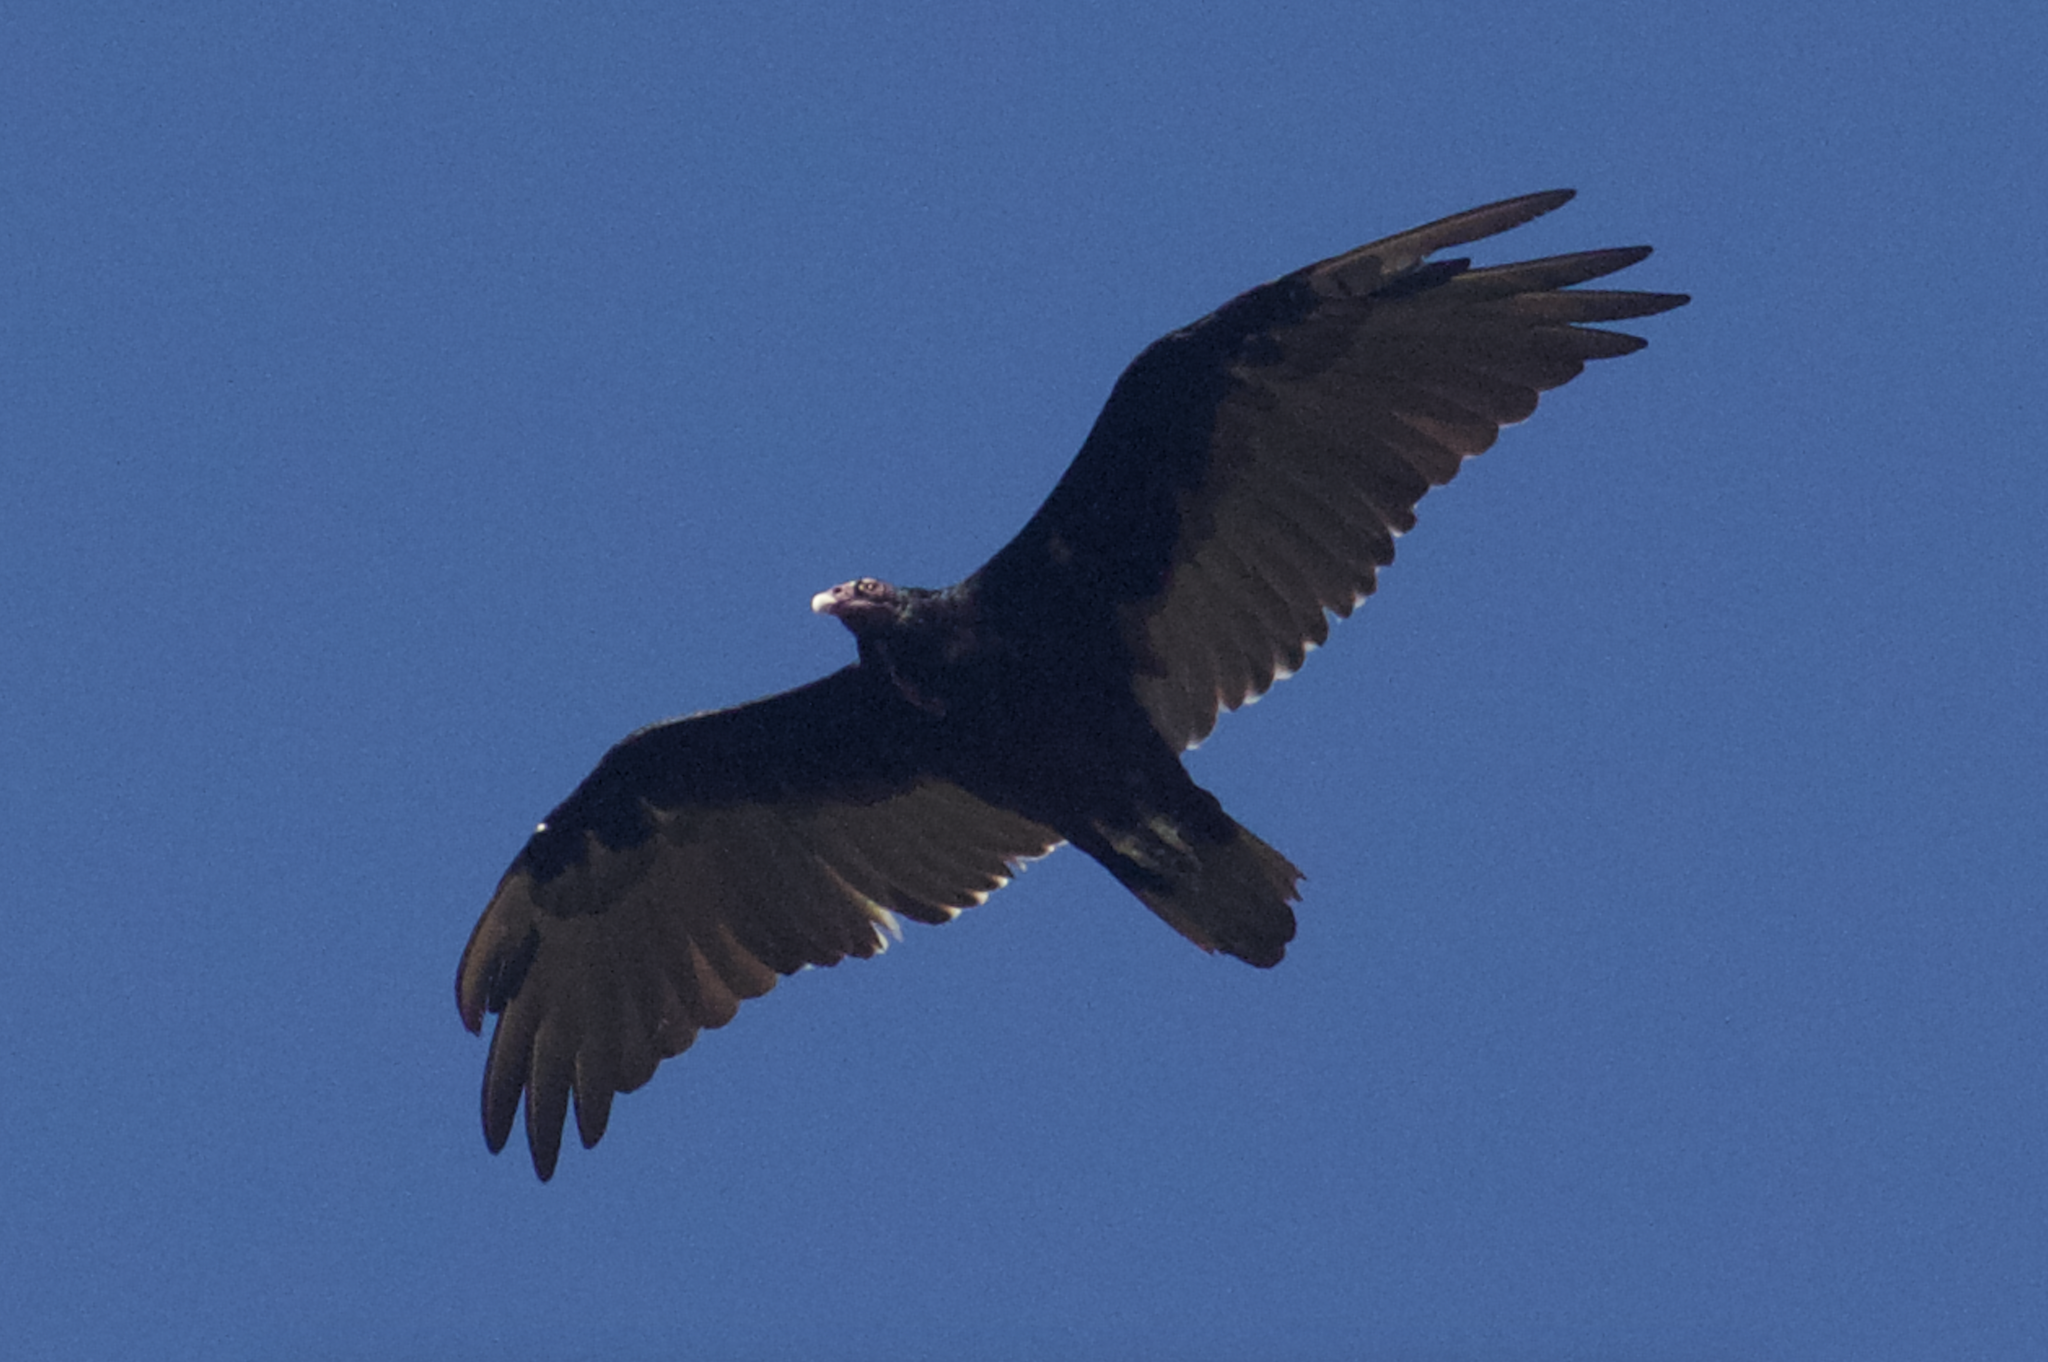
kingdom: Animalia
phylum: Chordata
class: Aves
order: Accipitriformes
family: Cathartidae
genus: Cathartes
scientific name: Cathartes aura
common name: Turkey vulture
